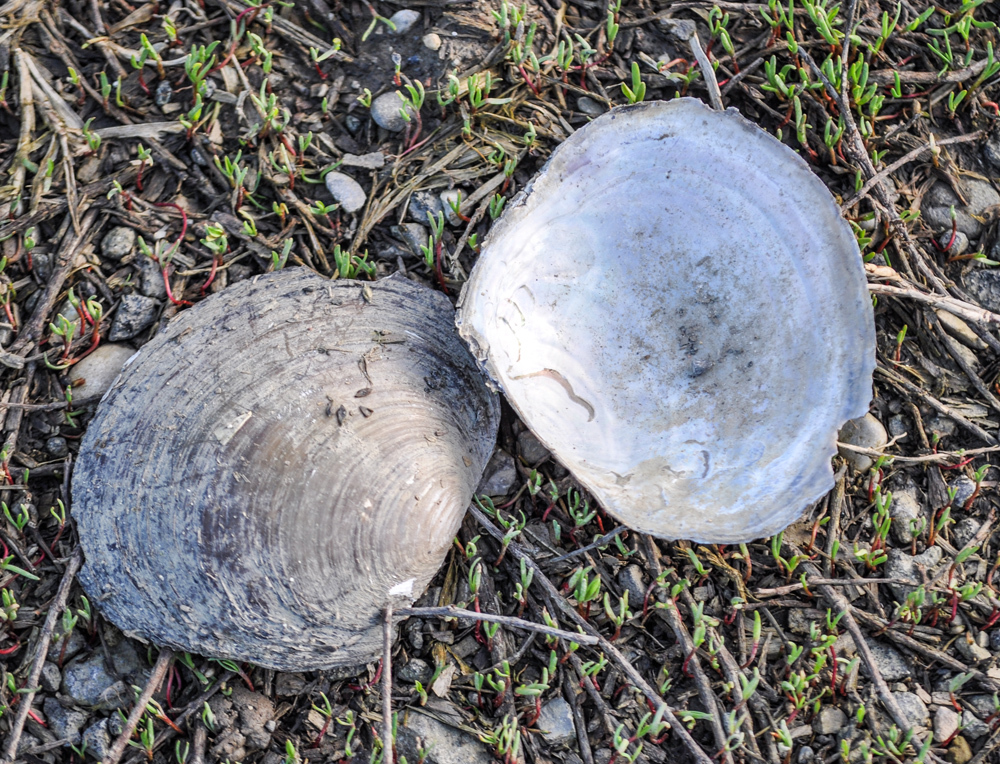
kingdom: Animalia
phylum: Mollusca
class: Bivalvia
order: Unionida
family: Unionidae
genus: Sinanodonta
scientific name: Sinanodonta woodiana
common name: Chinese pond mussel
